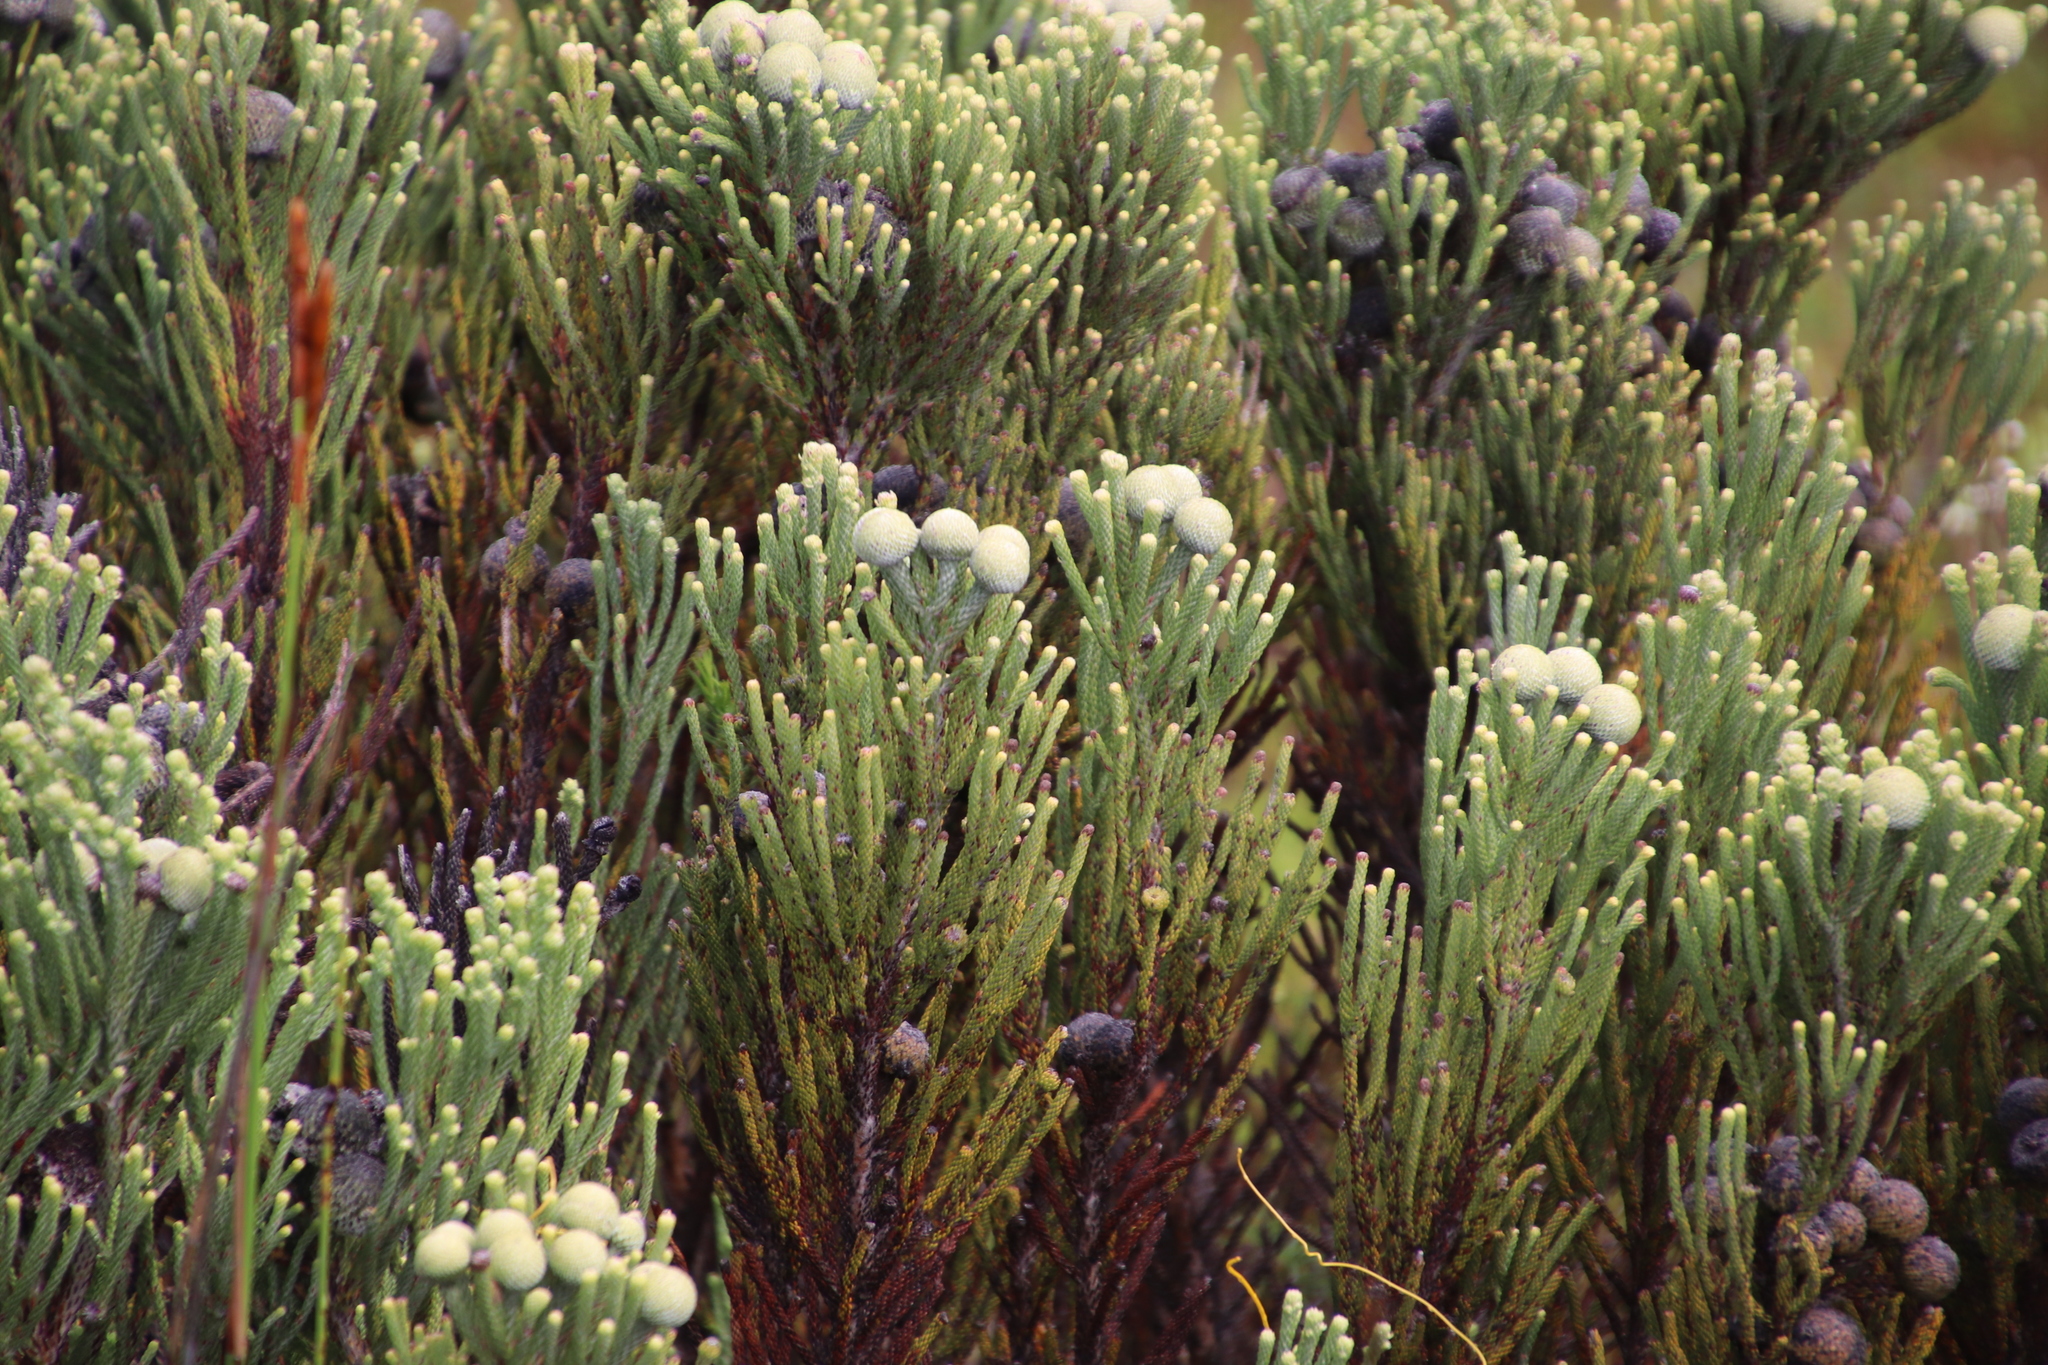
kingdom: Plantae
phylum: Tracheophyta
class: Magnoliopsida
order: Bruniales
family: Bruniaceae
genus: Brunia
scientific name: Brunia laevis
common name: Silver brunia
